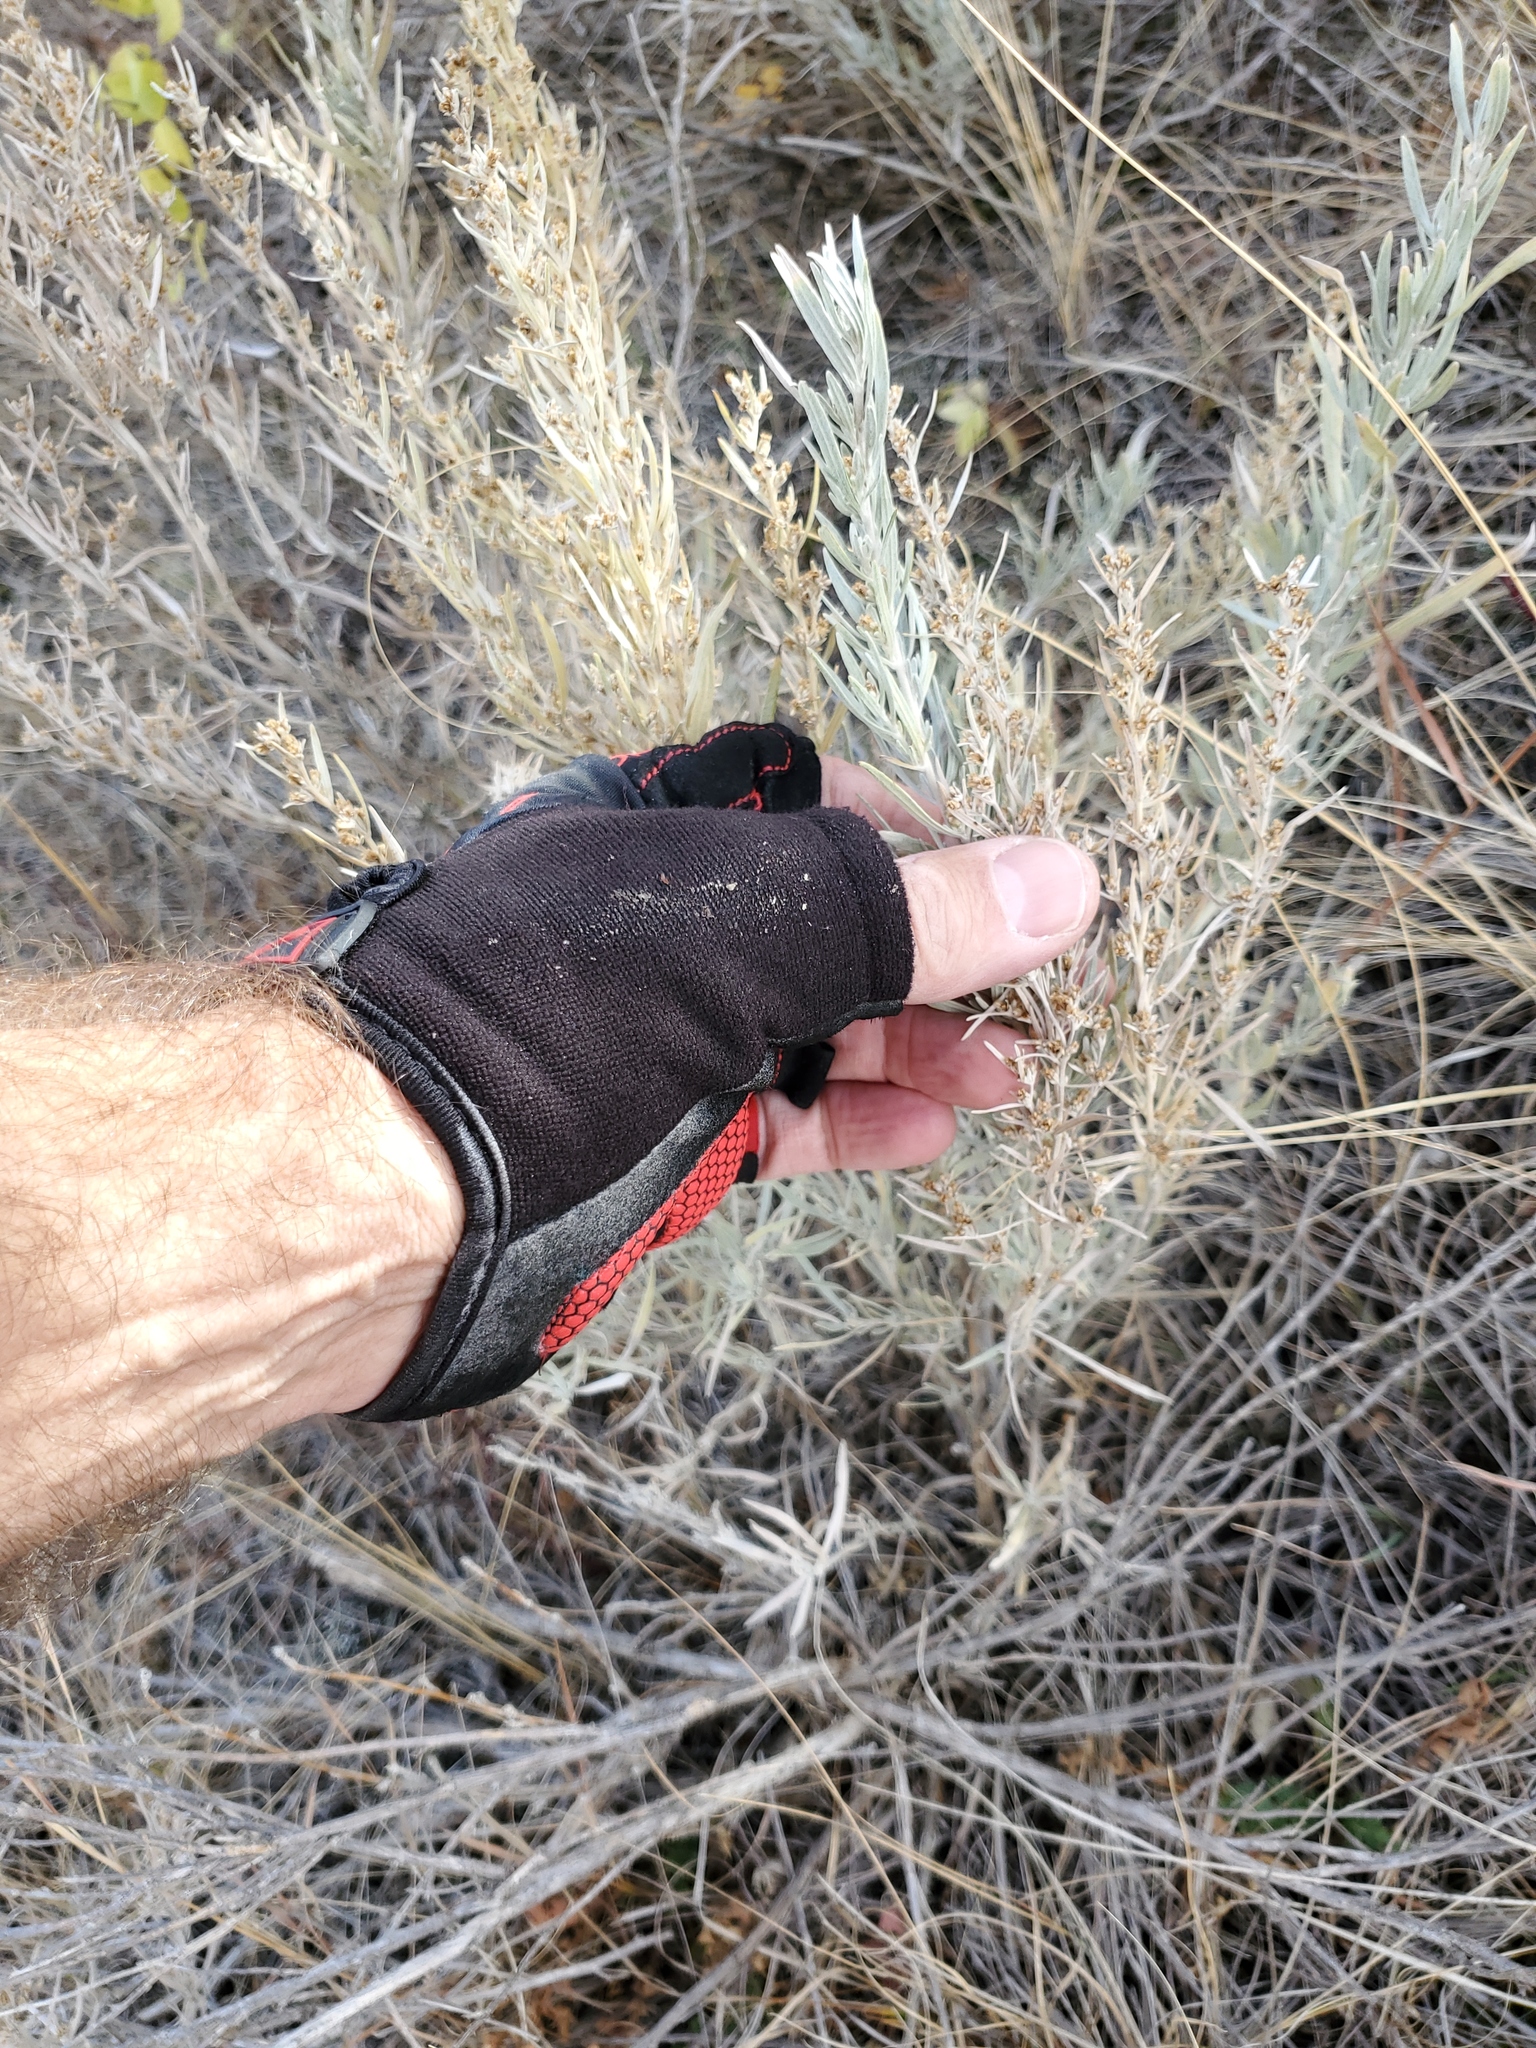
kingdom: Plantae
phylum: Tracheophyta
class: Magnoliopsida
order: Asterales
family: Asteraceae
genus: Artemisia
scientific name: Artemisia cana
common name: Silver sagebrush
